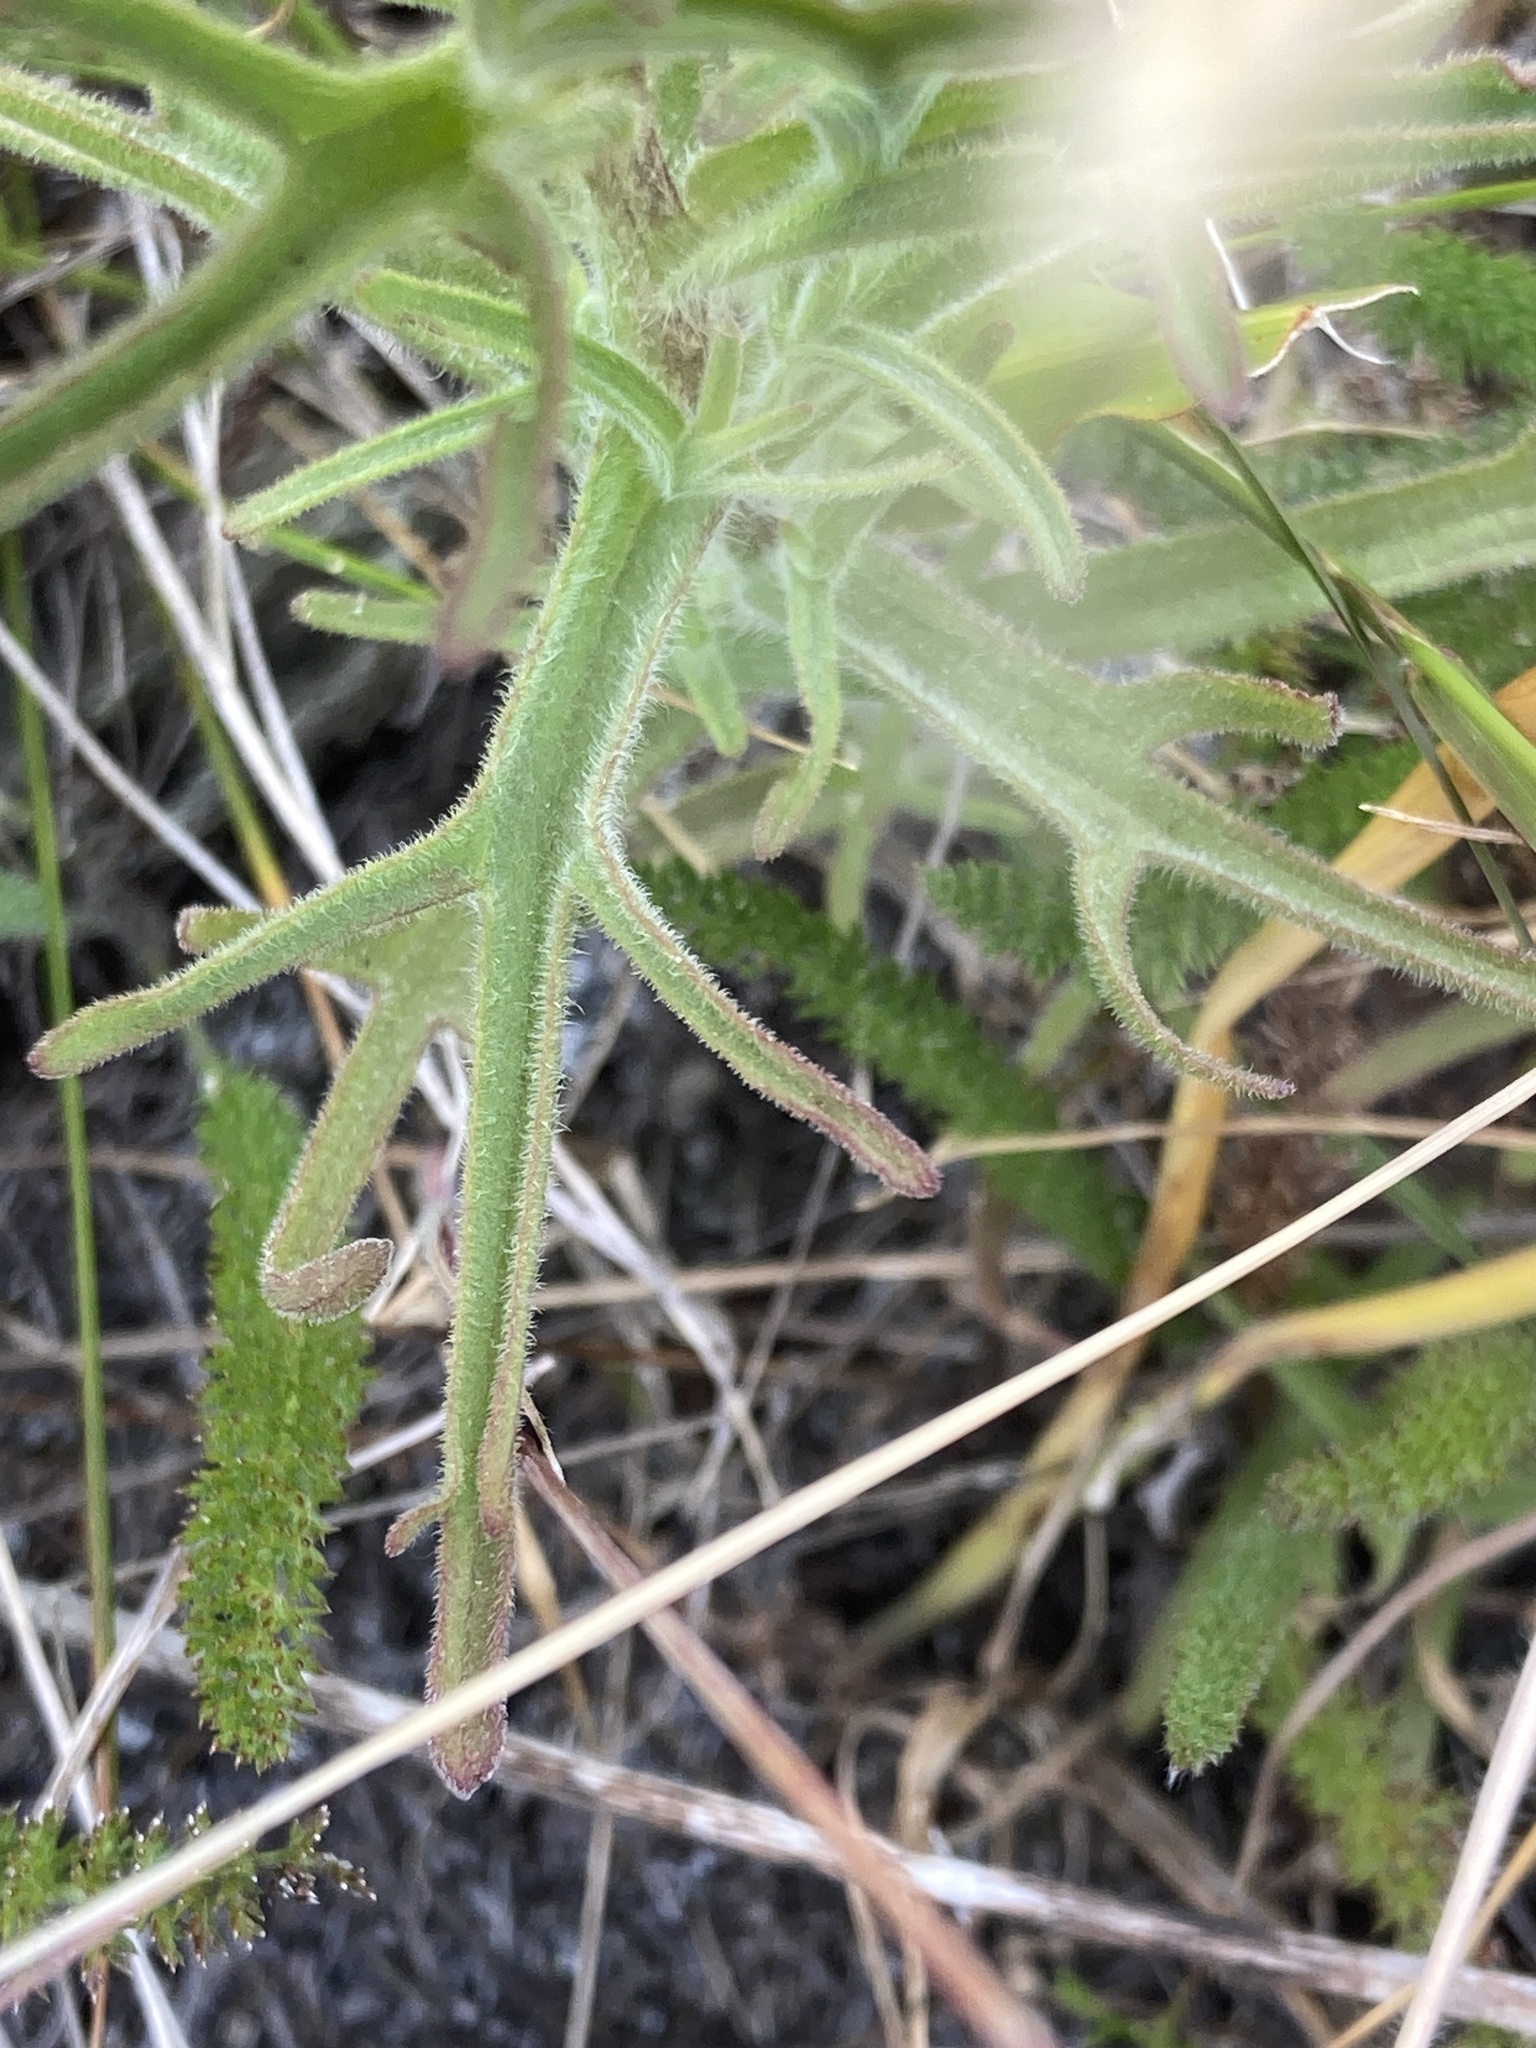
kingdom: Plantae
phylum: Tracheophyta
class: Magnoliopsida
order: Lamiales
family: Orobanchaceae
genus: Castilleja
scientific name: Castilleja affinis
